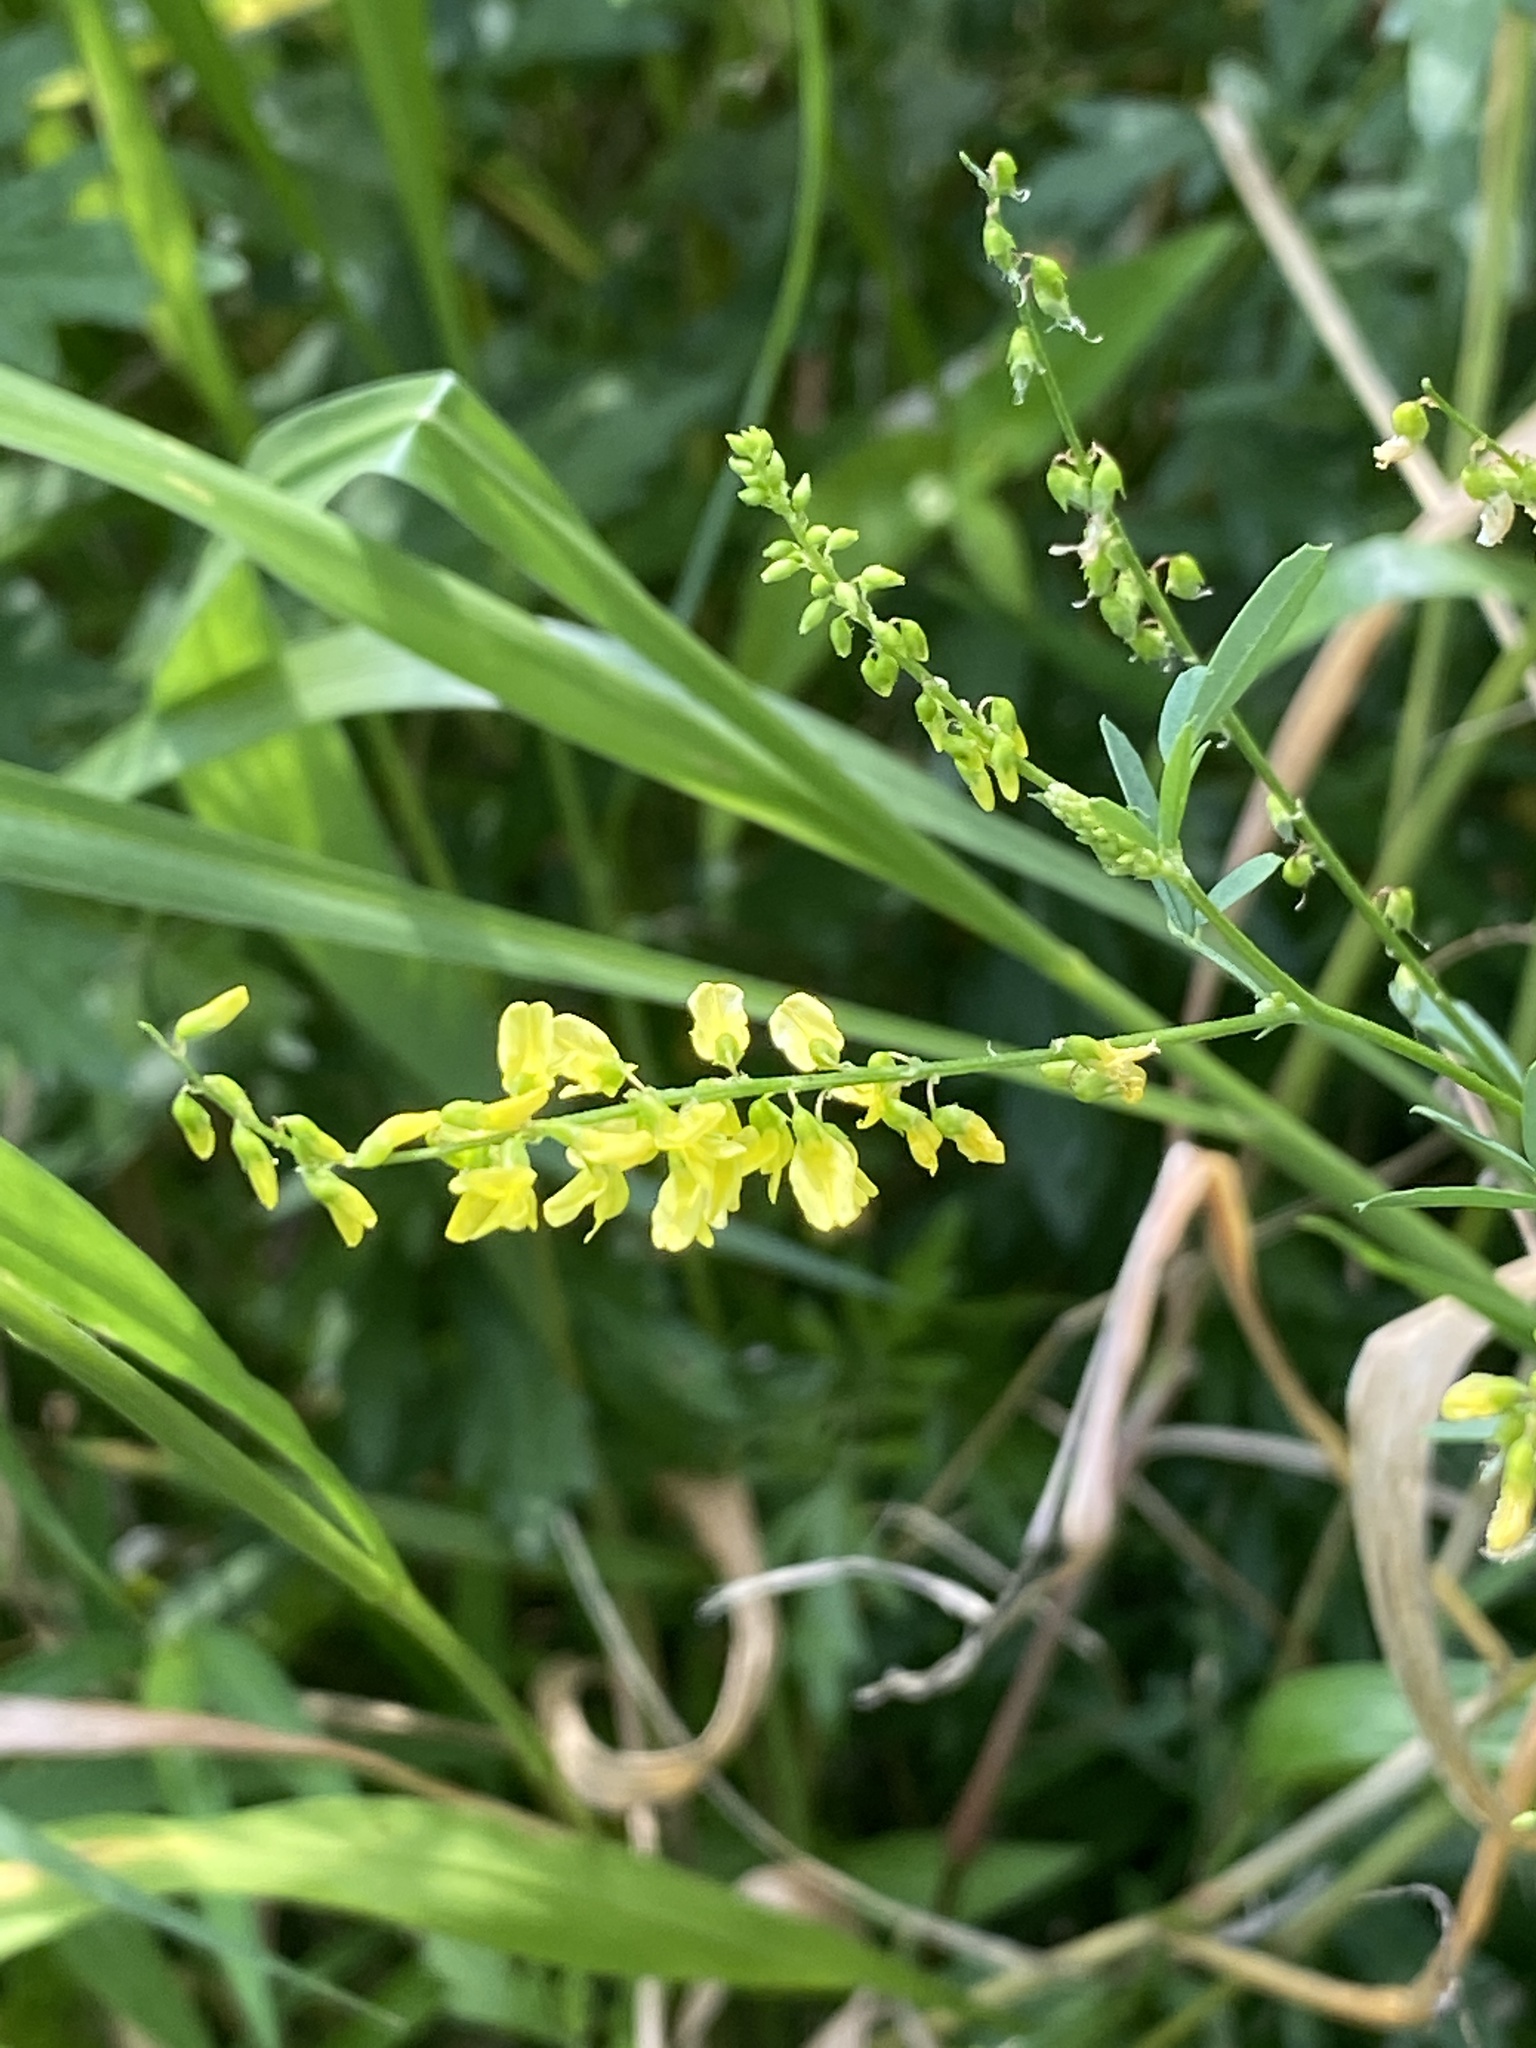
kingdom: Plantae
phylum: Tracheophyta
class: Magnoliopsida
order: Fabales
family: Fabaceae
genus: Melilotus
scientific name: Melilotus officinalis
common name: Sweetclover
